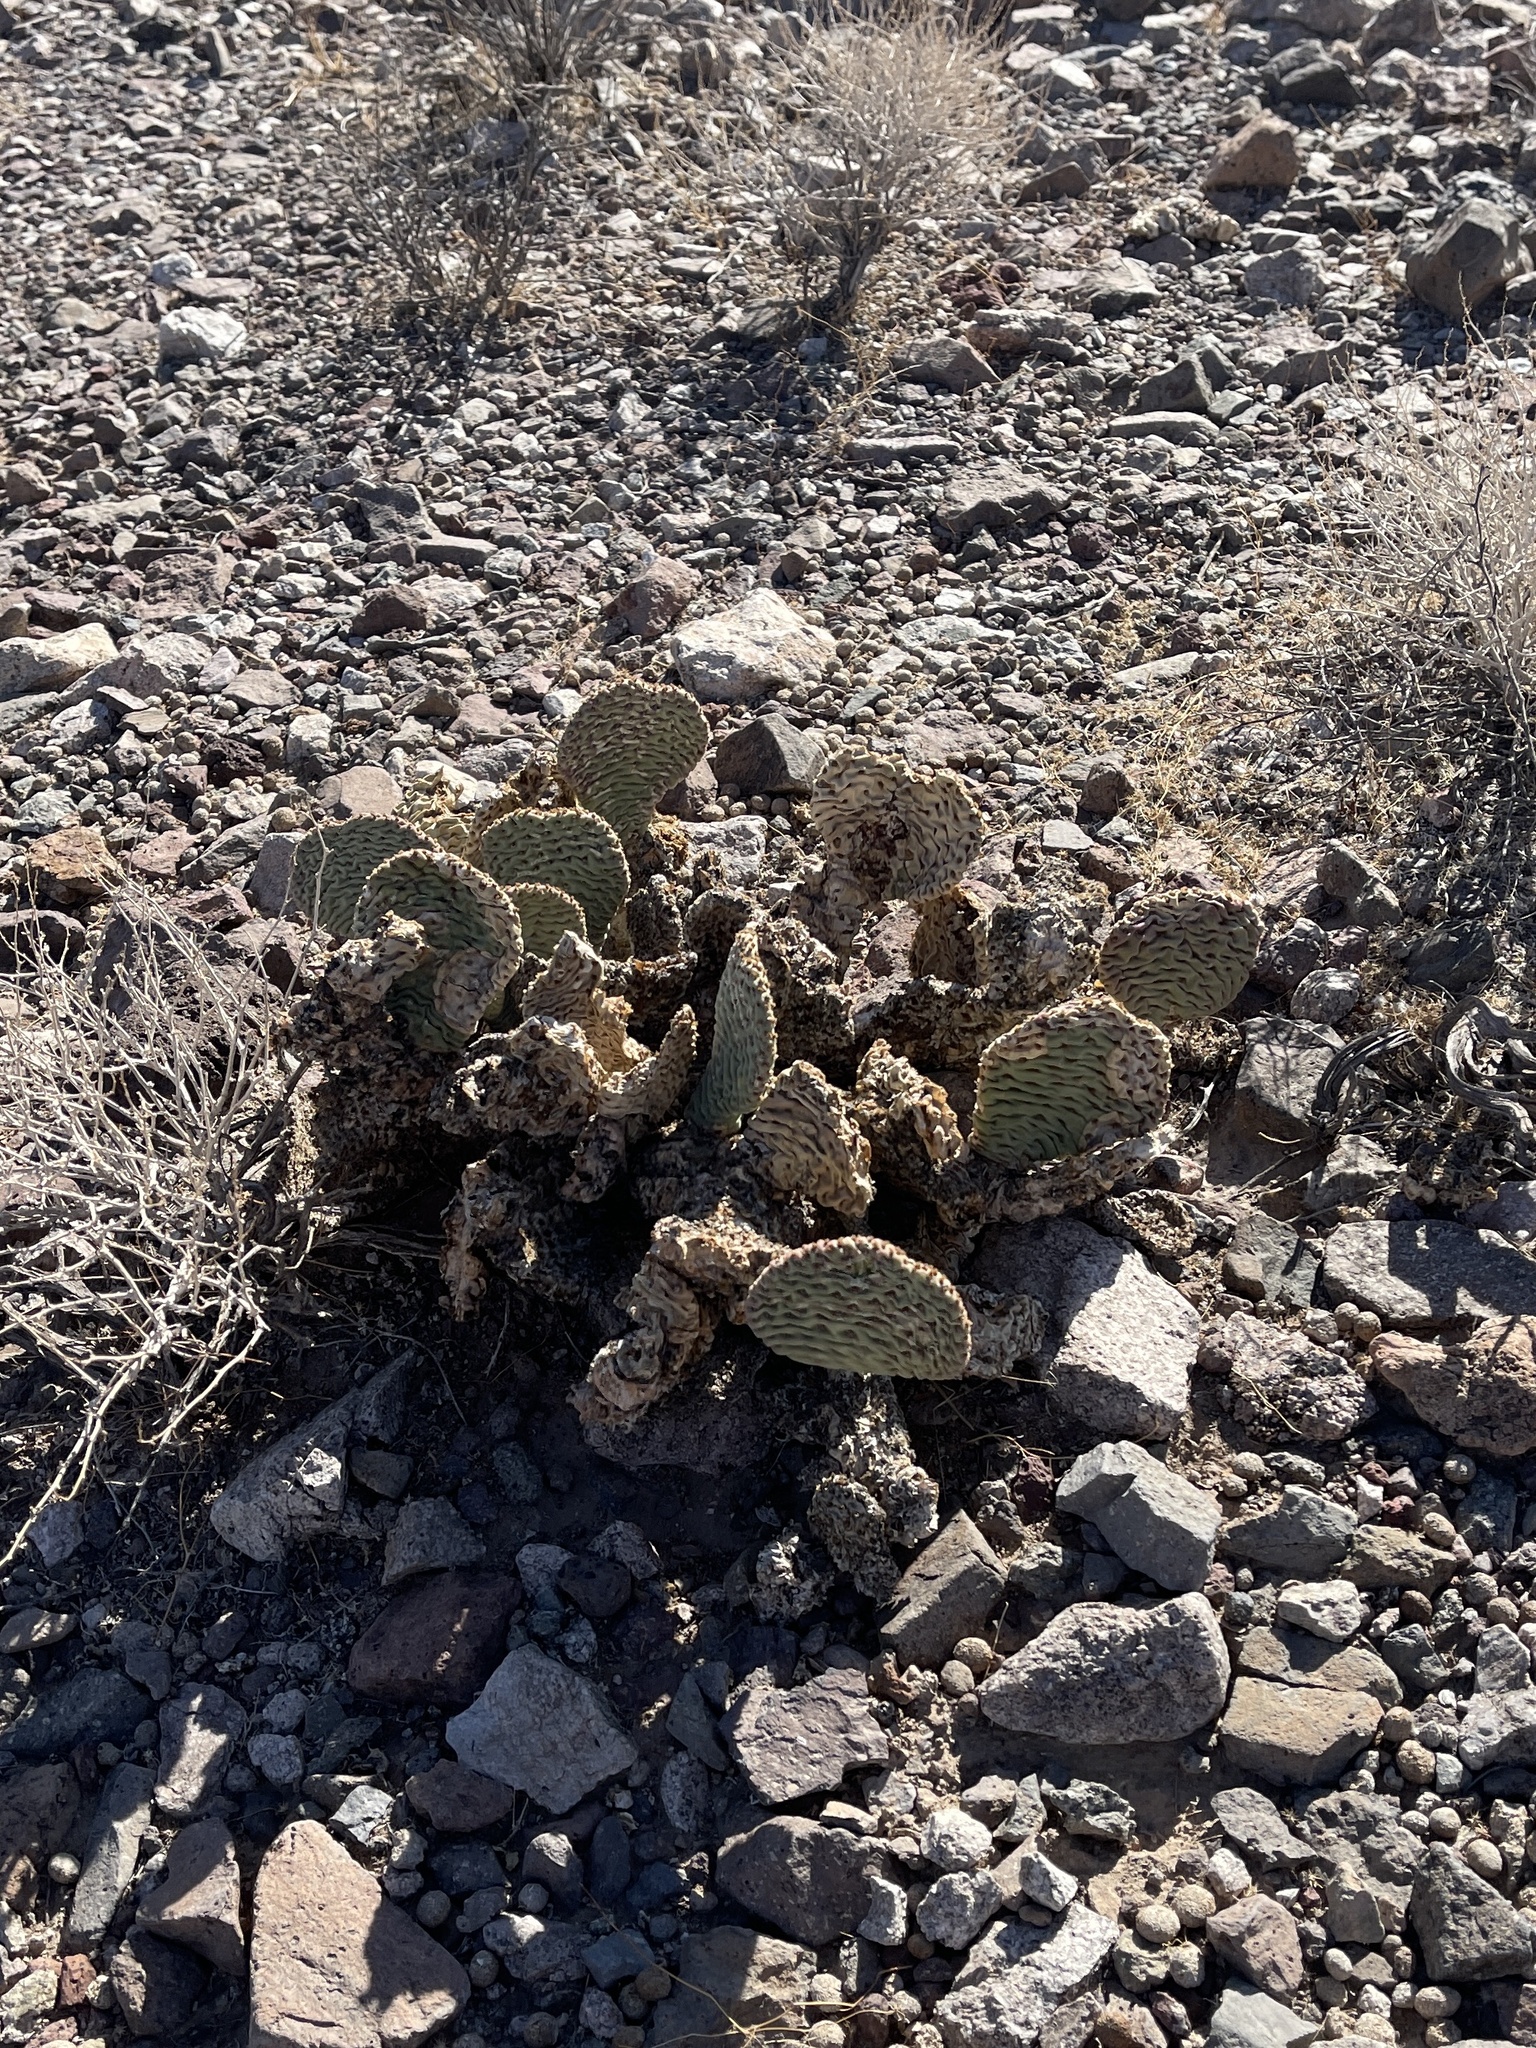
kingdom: Plantae
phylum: Tracheophyta
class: Magnoliopsida
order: Caryophyllales
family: Cactaceae
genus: Opuntia
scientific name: Opuntia basilaris
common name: Beavertail prickly-pear
